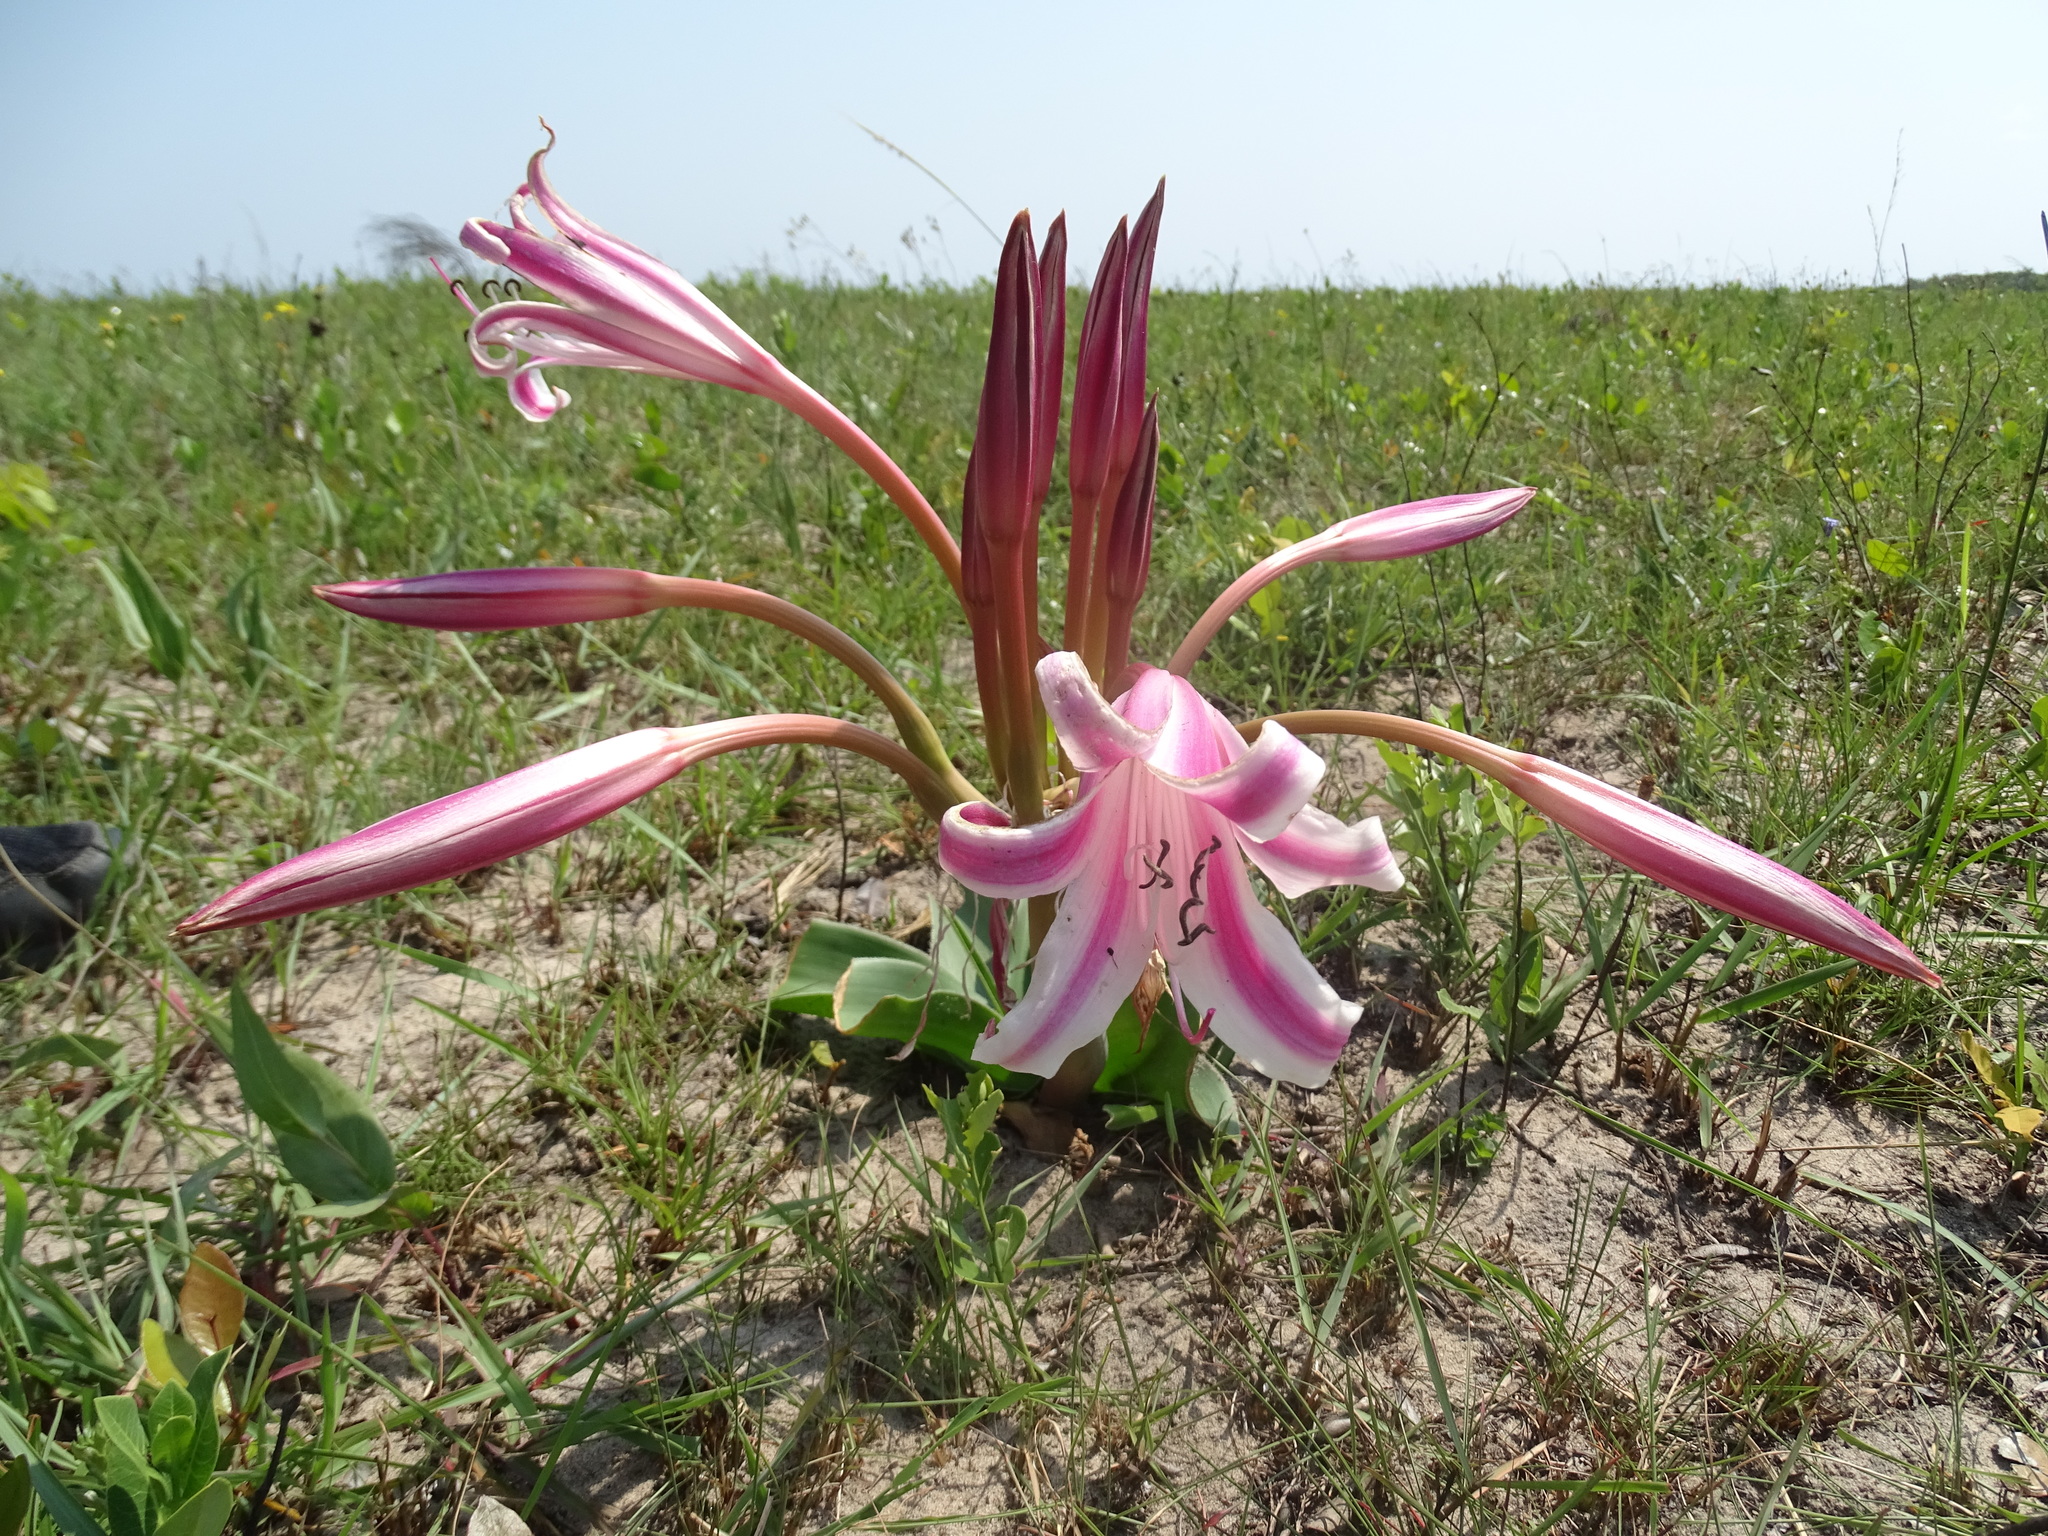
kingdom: Plantae
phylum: Tracheophyta
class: Liliopsida
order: Asparagales
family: Amaryllidaceae
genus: Crinum
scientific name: Crinum stuhlmannii
